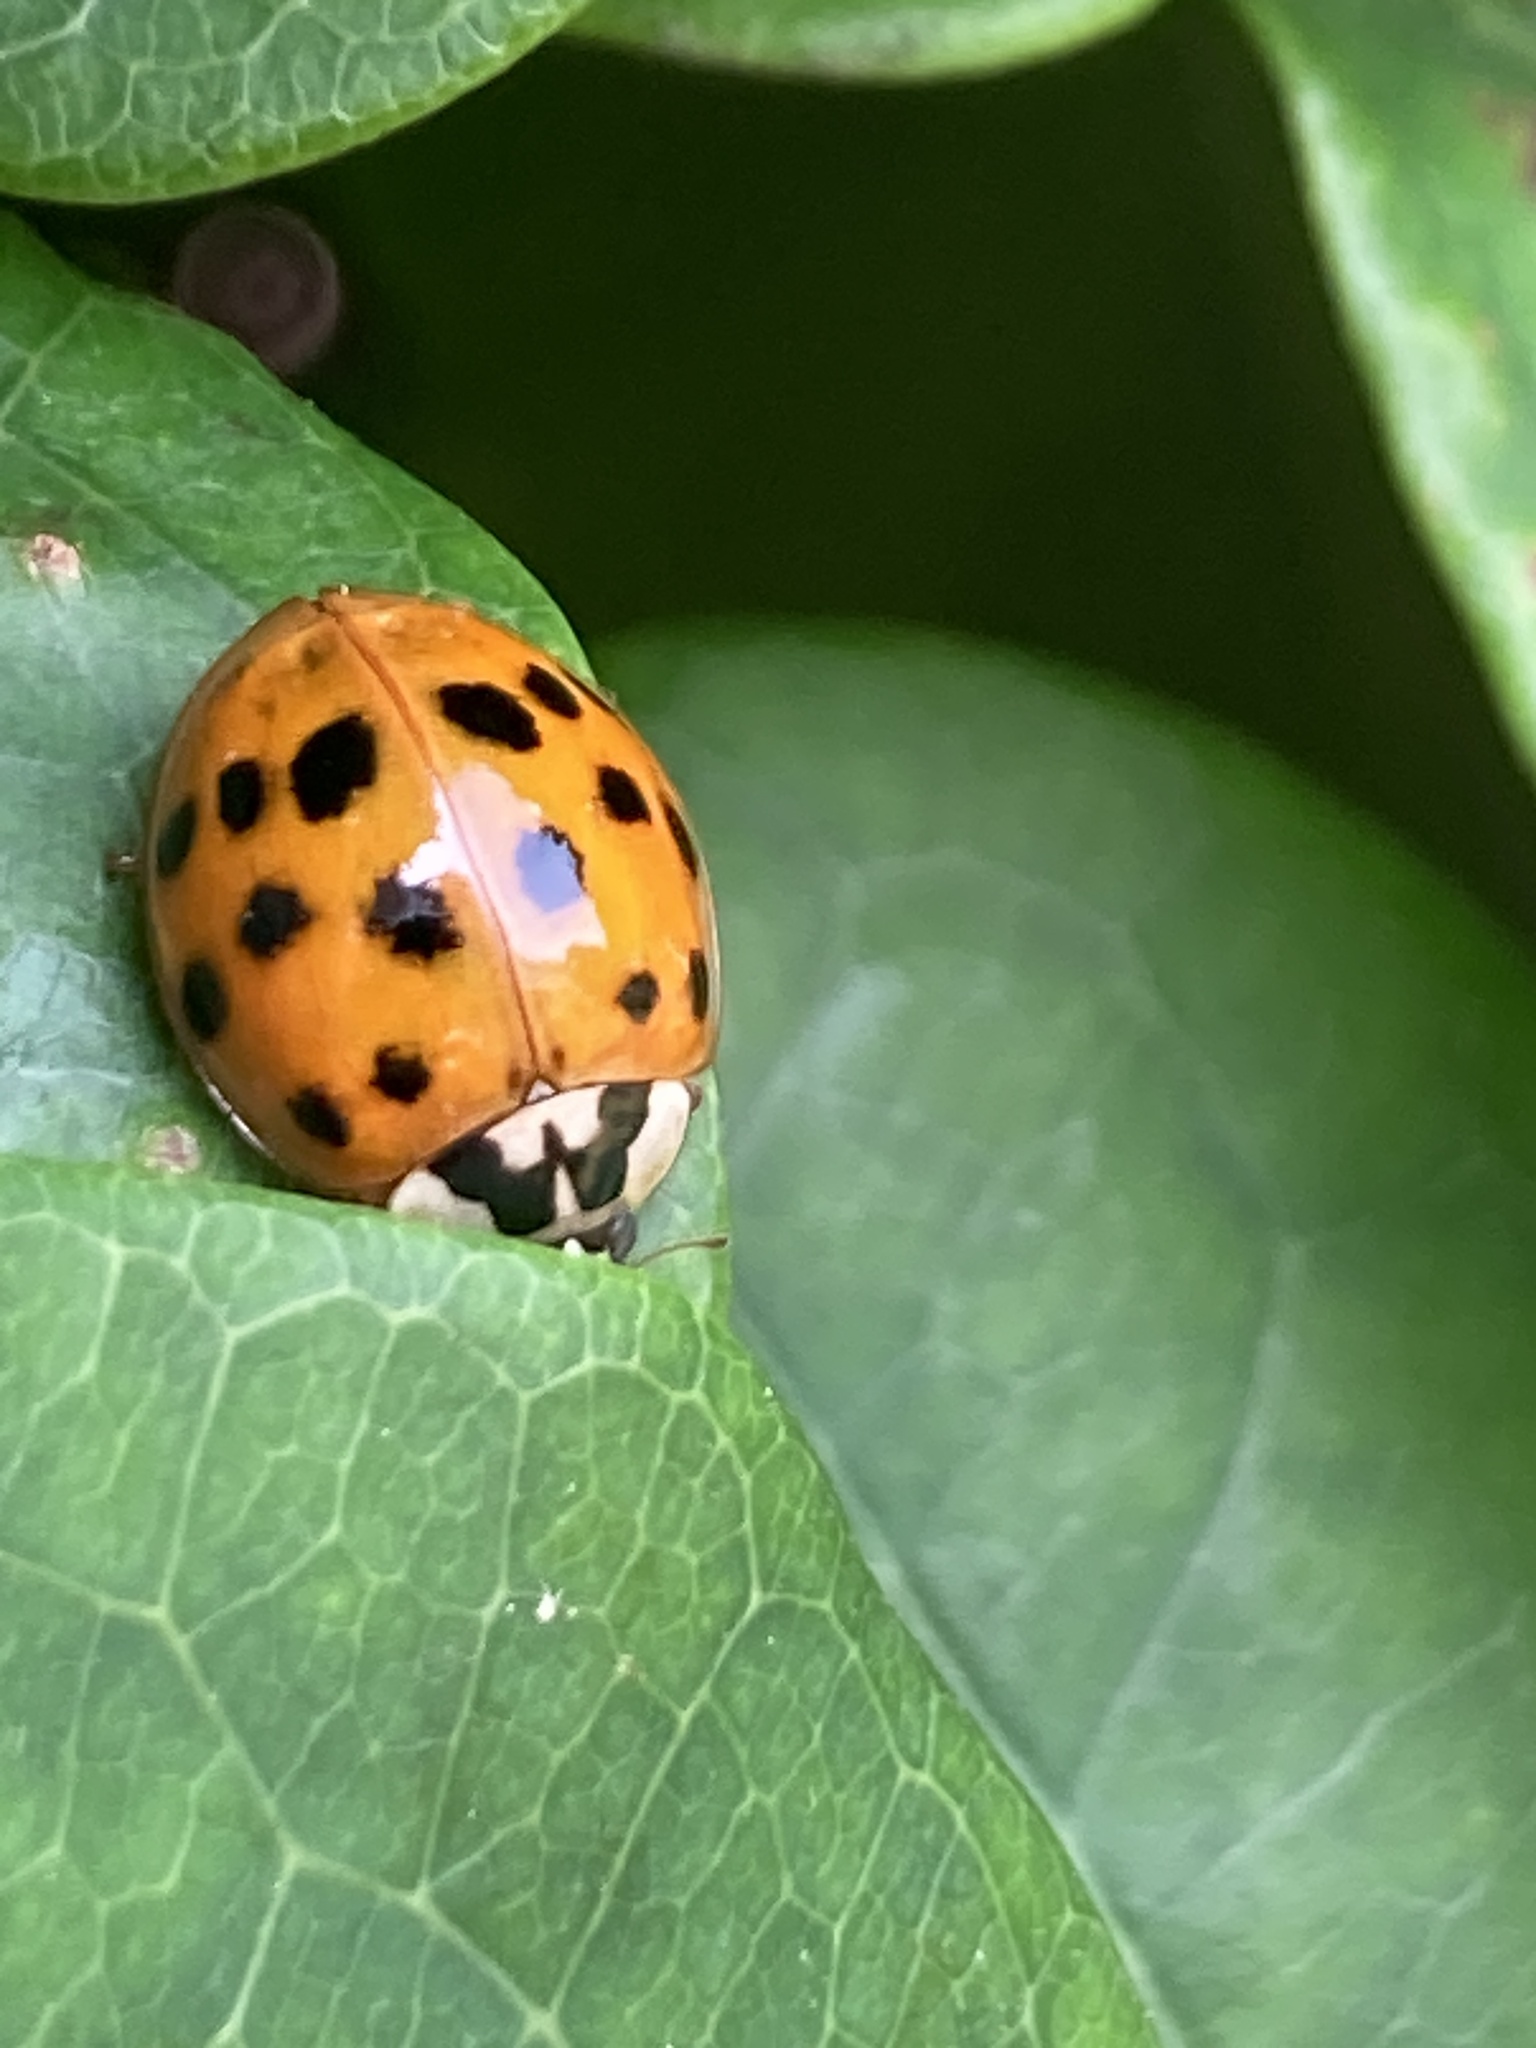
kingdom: Animalia
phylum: Arthropoda
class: Insecta
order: Coleoptera
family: Coccinellidae
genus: Harmonia
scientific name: Harmonia axyridis
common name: Harlequin ladybird
